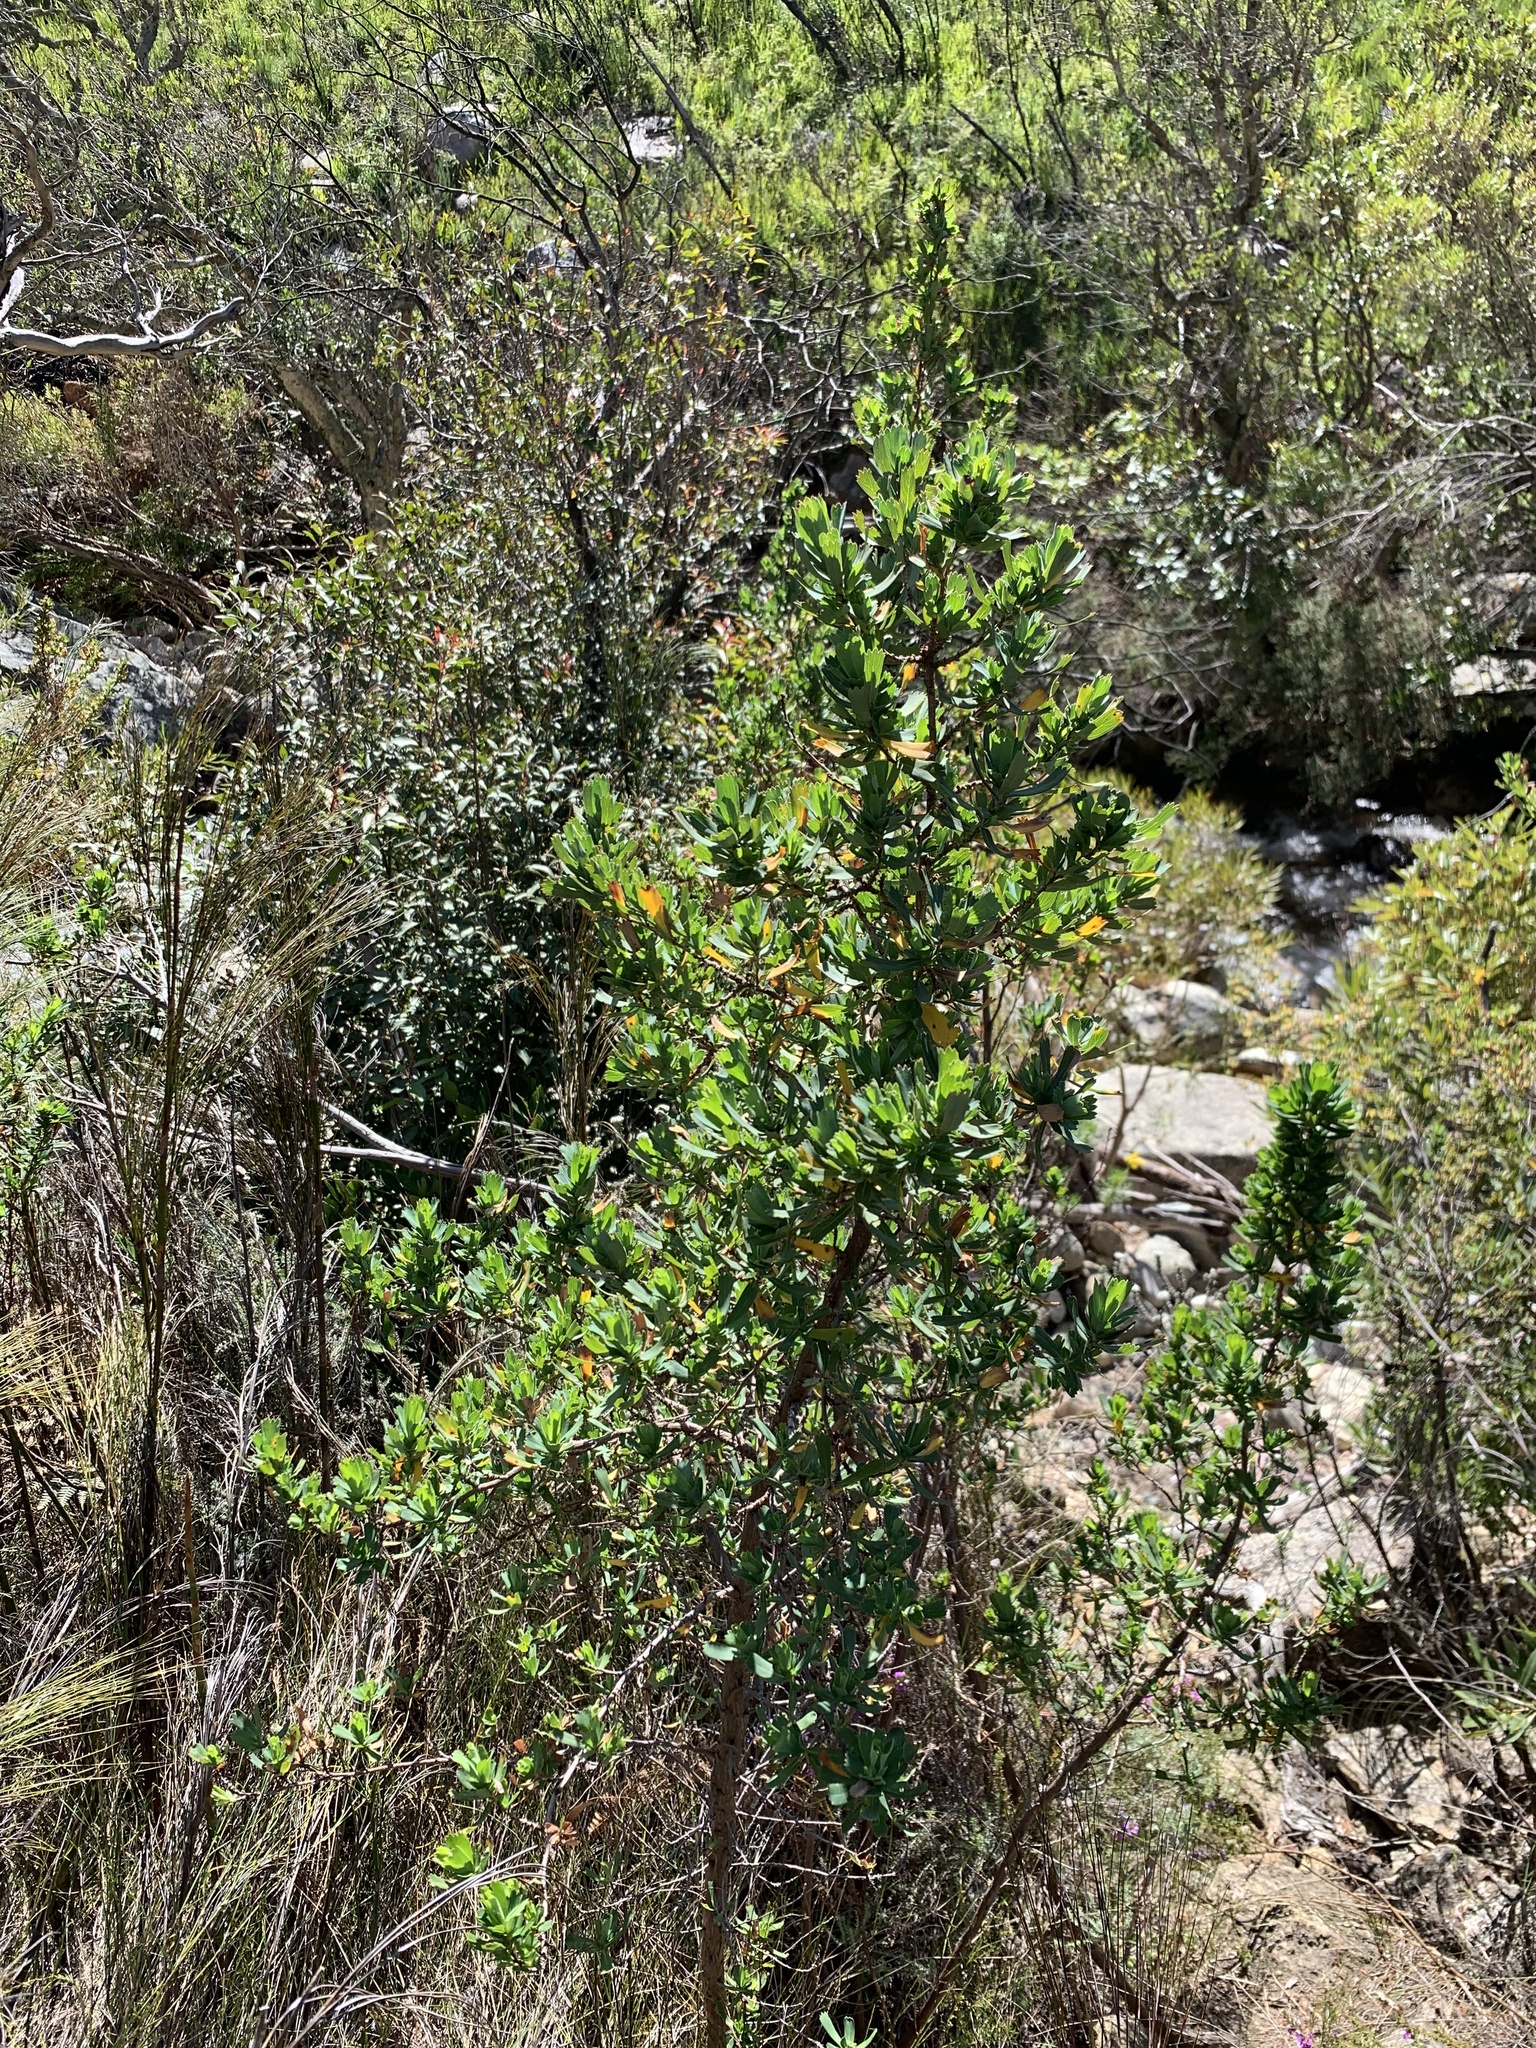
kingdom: Plantae
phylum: Tracheophyta
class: Magnoliopsida
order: Rosales
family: Rosaceae
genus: Cliffortia
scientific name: Cliffortia cuneata
